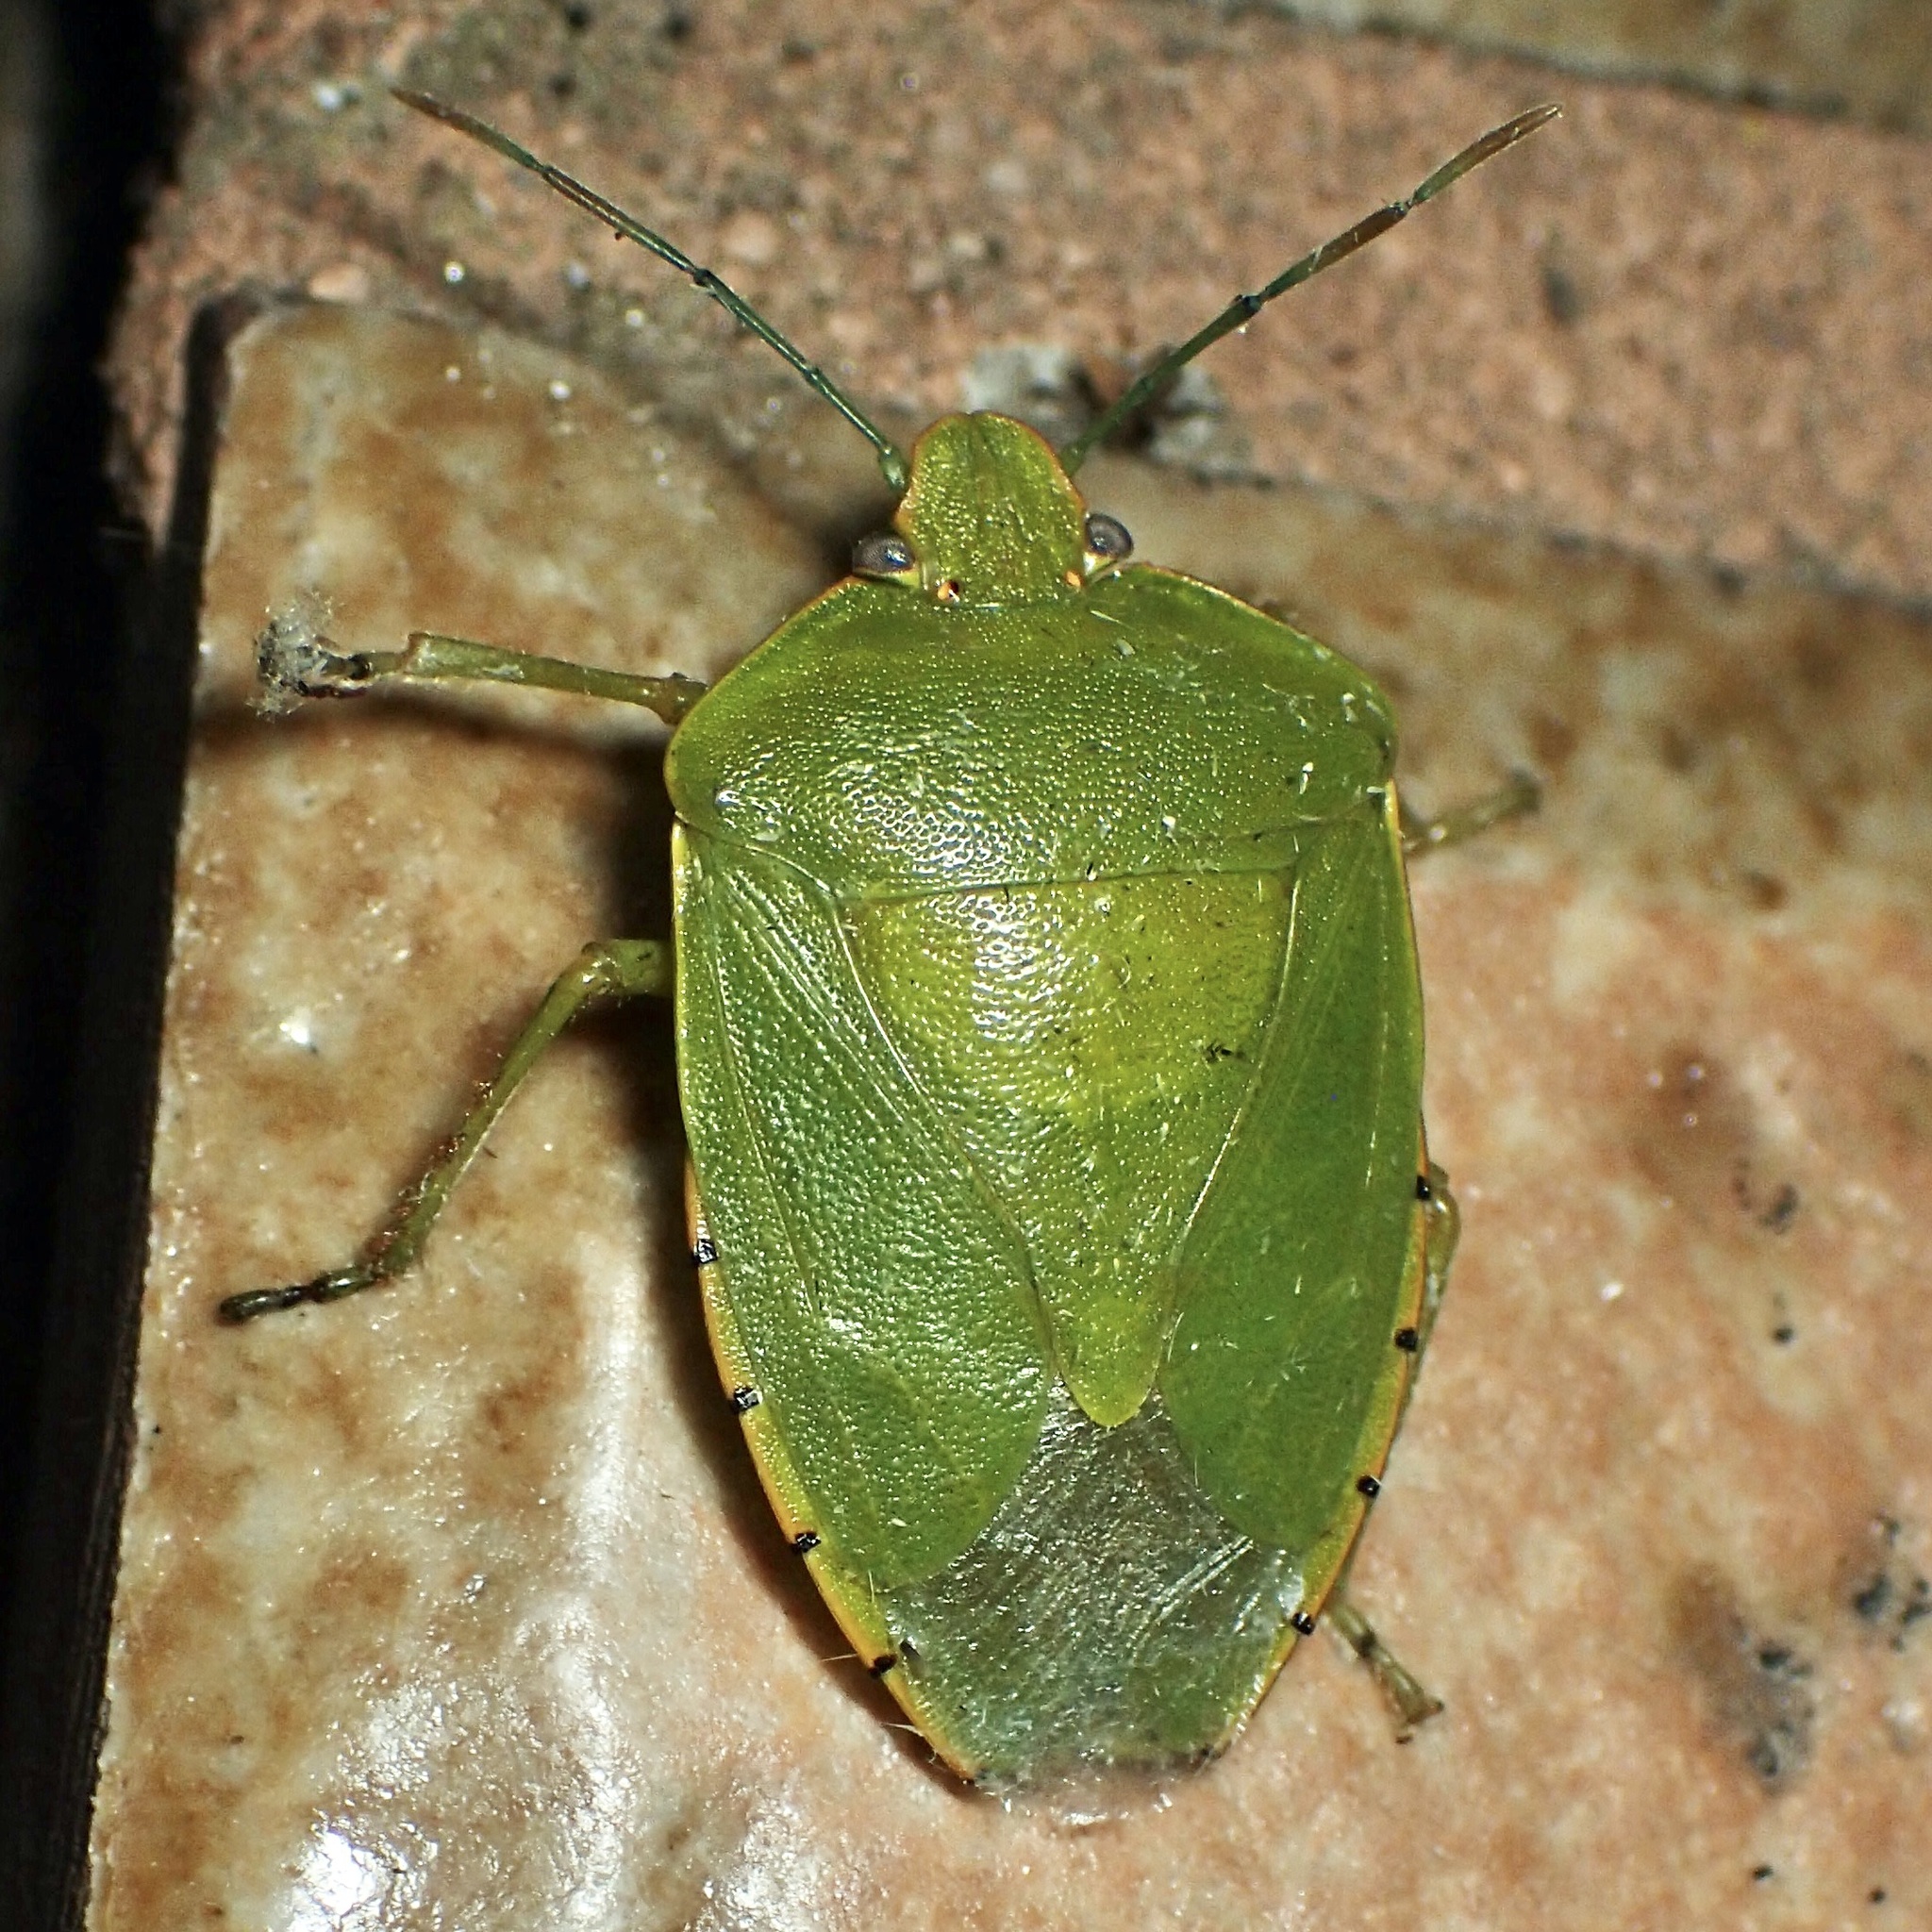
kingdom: Animalia
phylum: Arthropoda
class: Insecta
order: Hemiptera
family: Pentatomidae
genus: Chinavia
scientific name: Chinavia hilaris
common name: Green stink bug
